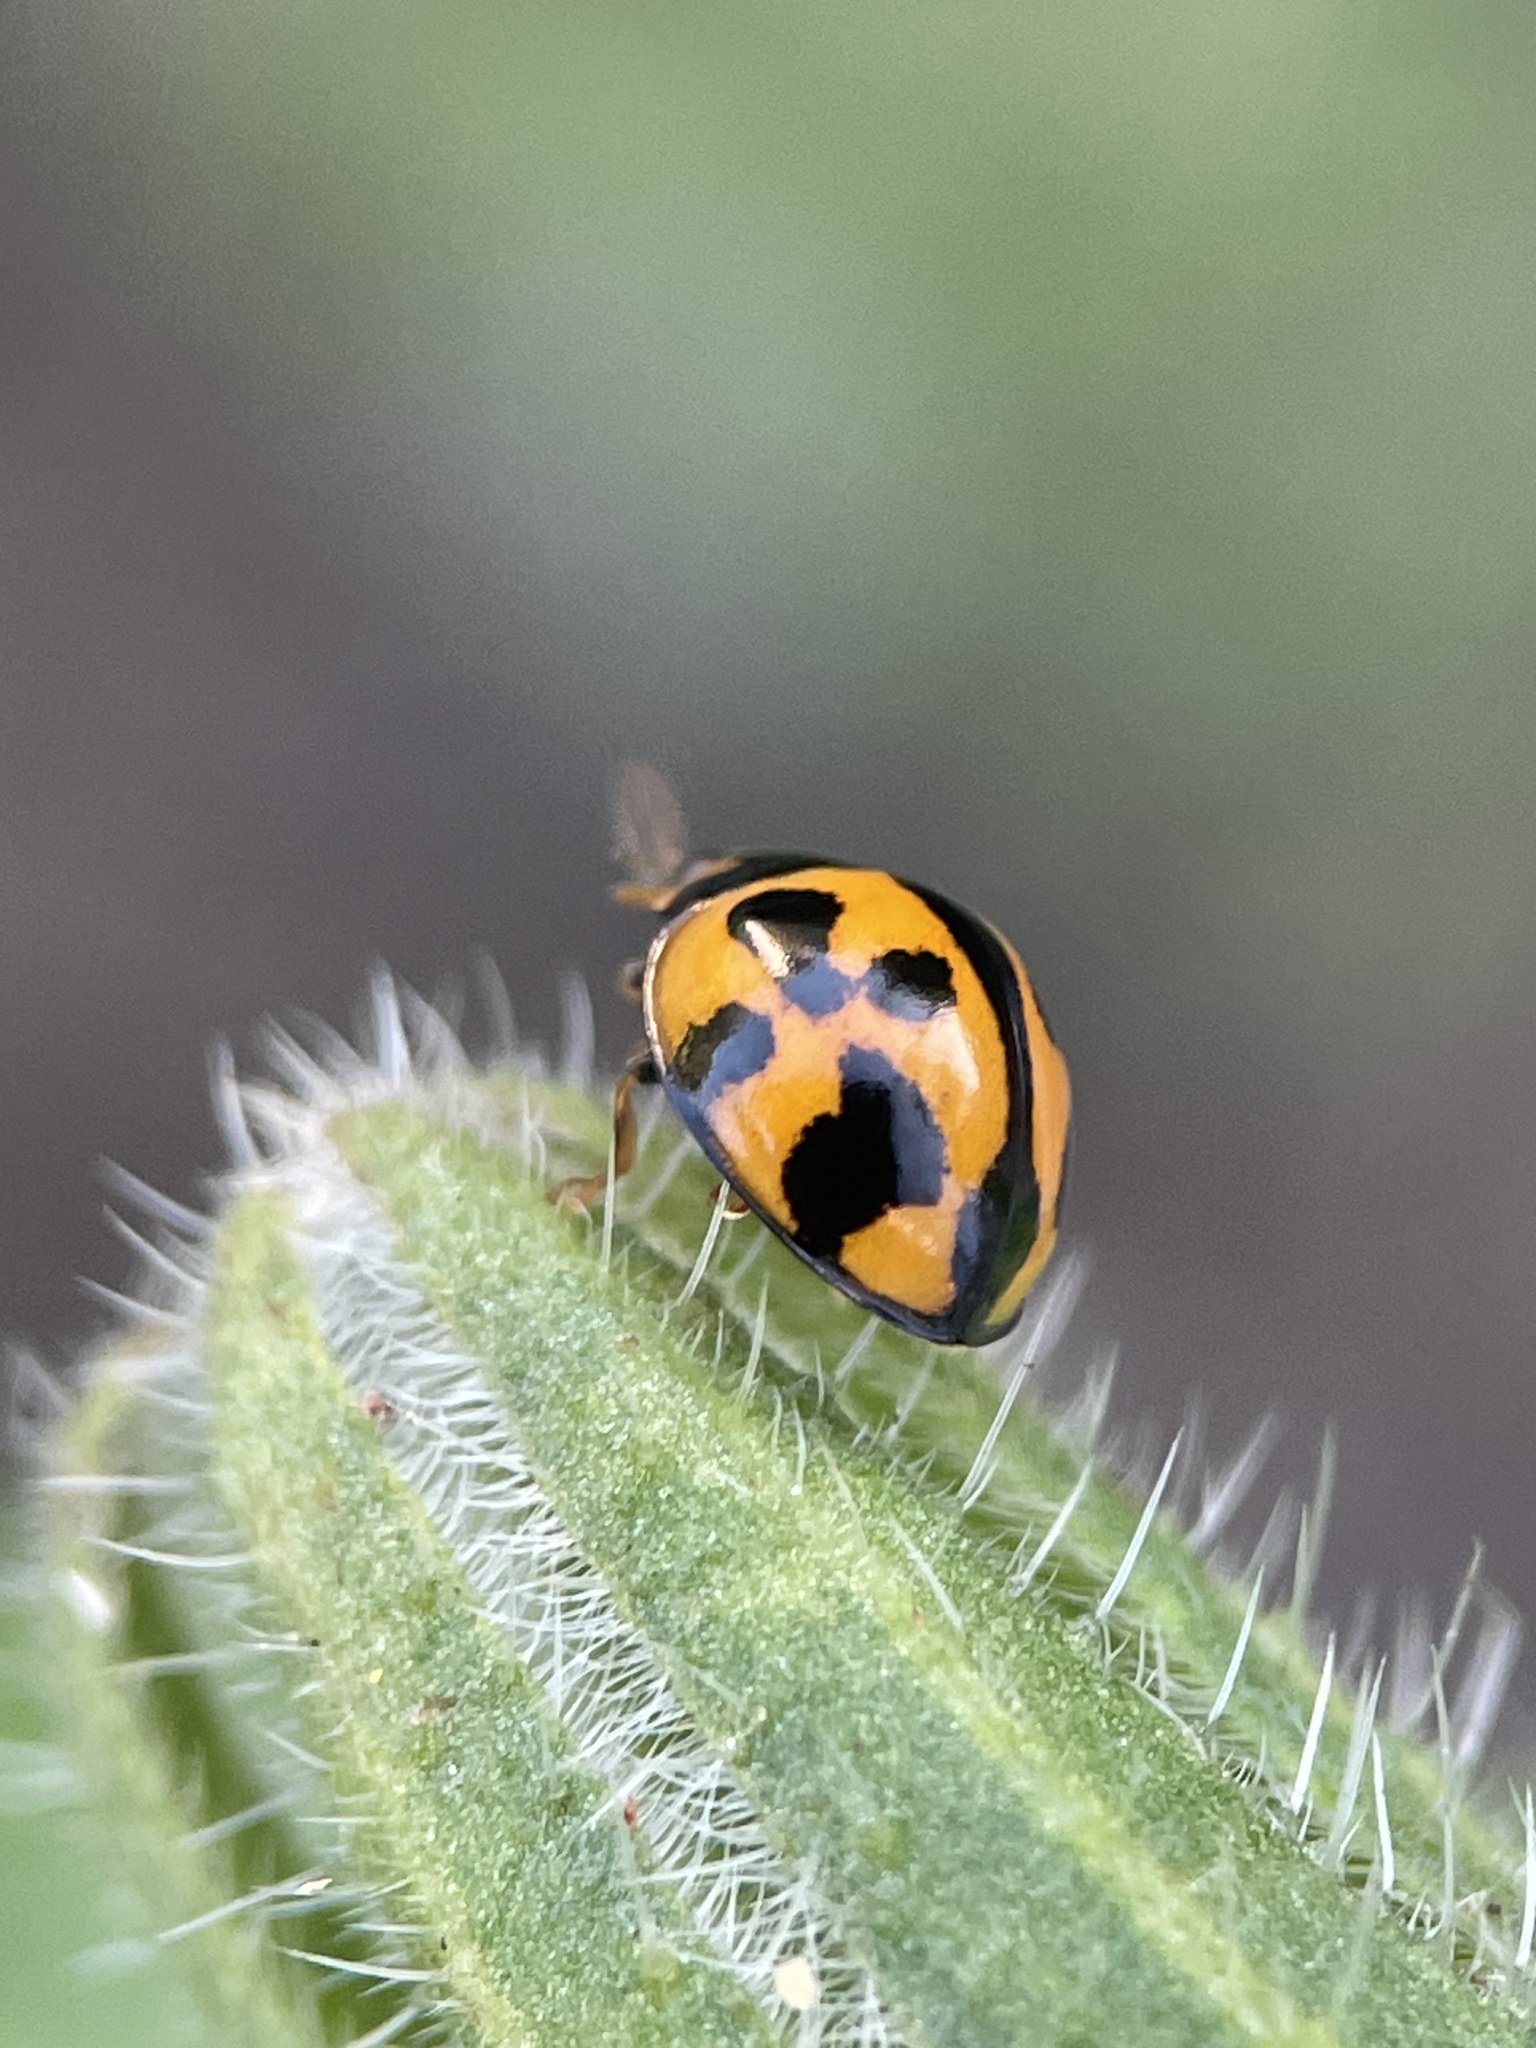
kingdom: Animalia
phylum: Arthropoda
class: Insecta
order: Coleoptera
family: Coccinellidae
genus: Coelophora
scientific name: Coelophora inaequalis
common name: Common australian lady beetle
